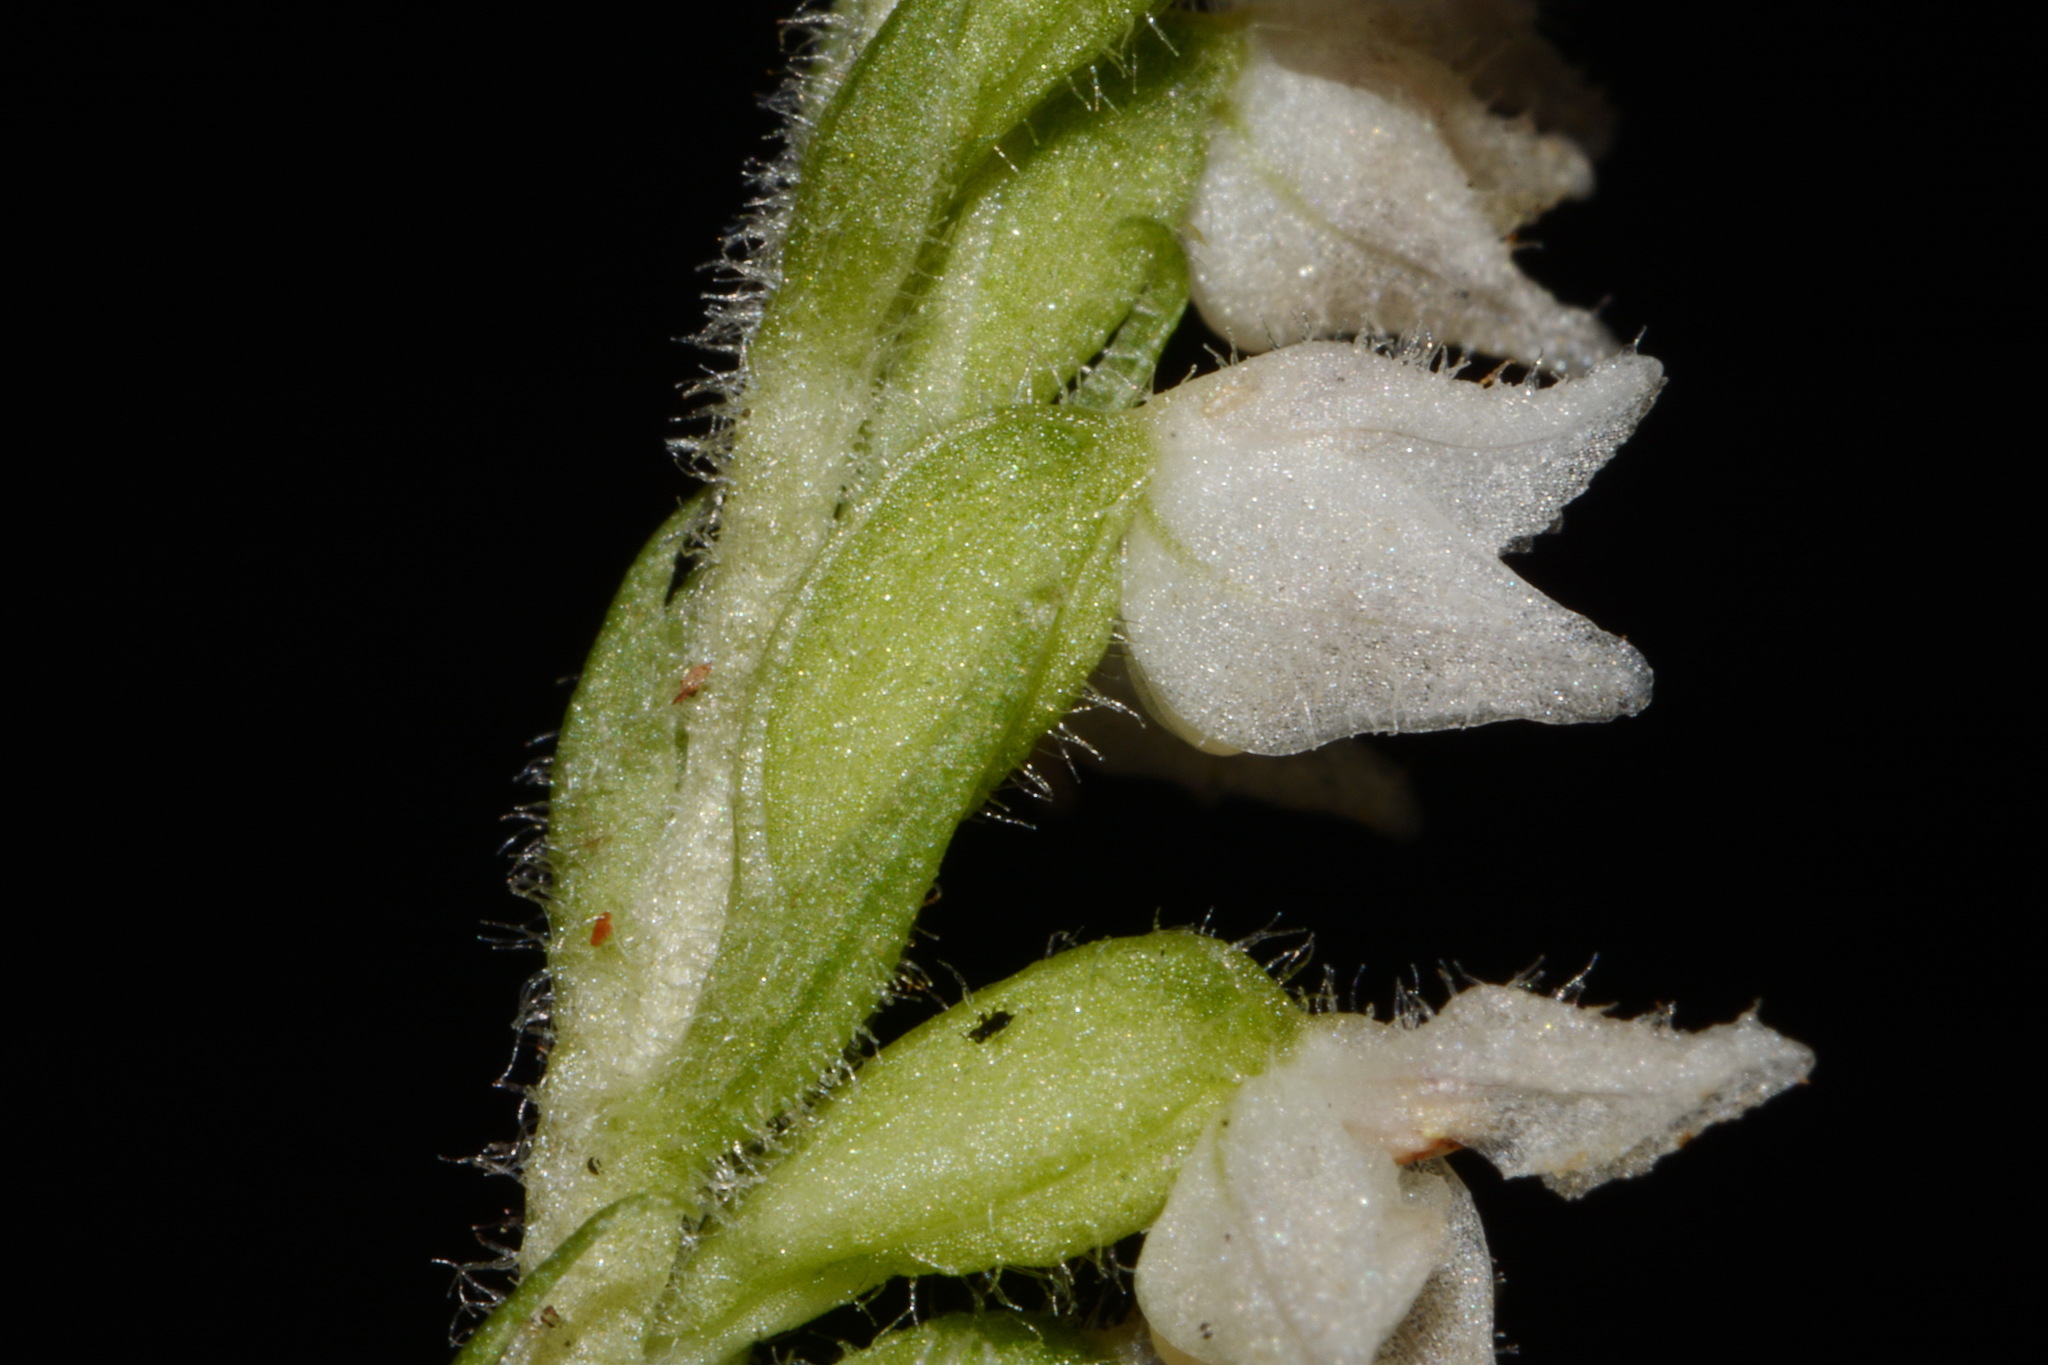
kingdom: Plantae
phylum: Tracheophyta
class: Liliopsida
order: Asparagales
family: Orchidaceae
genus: Goodyera
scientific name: Goodyera repens
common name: Creeping lady's-tresses
